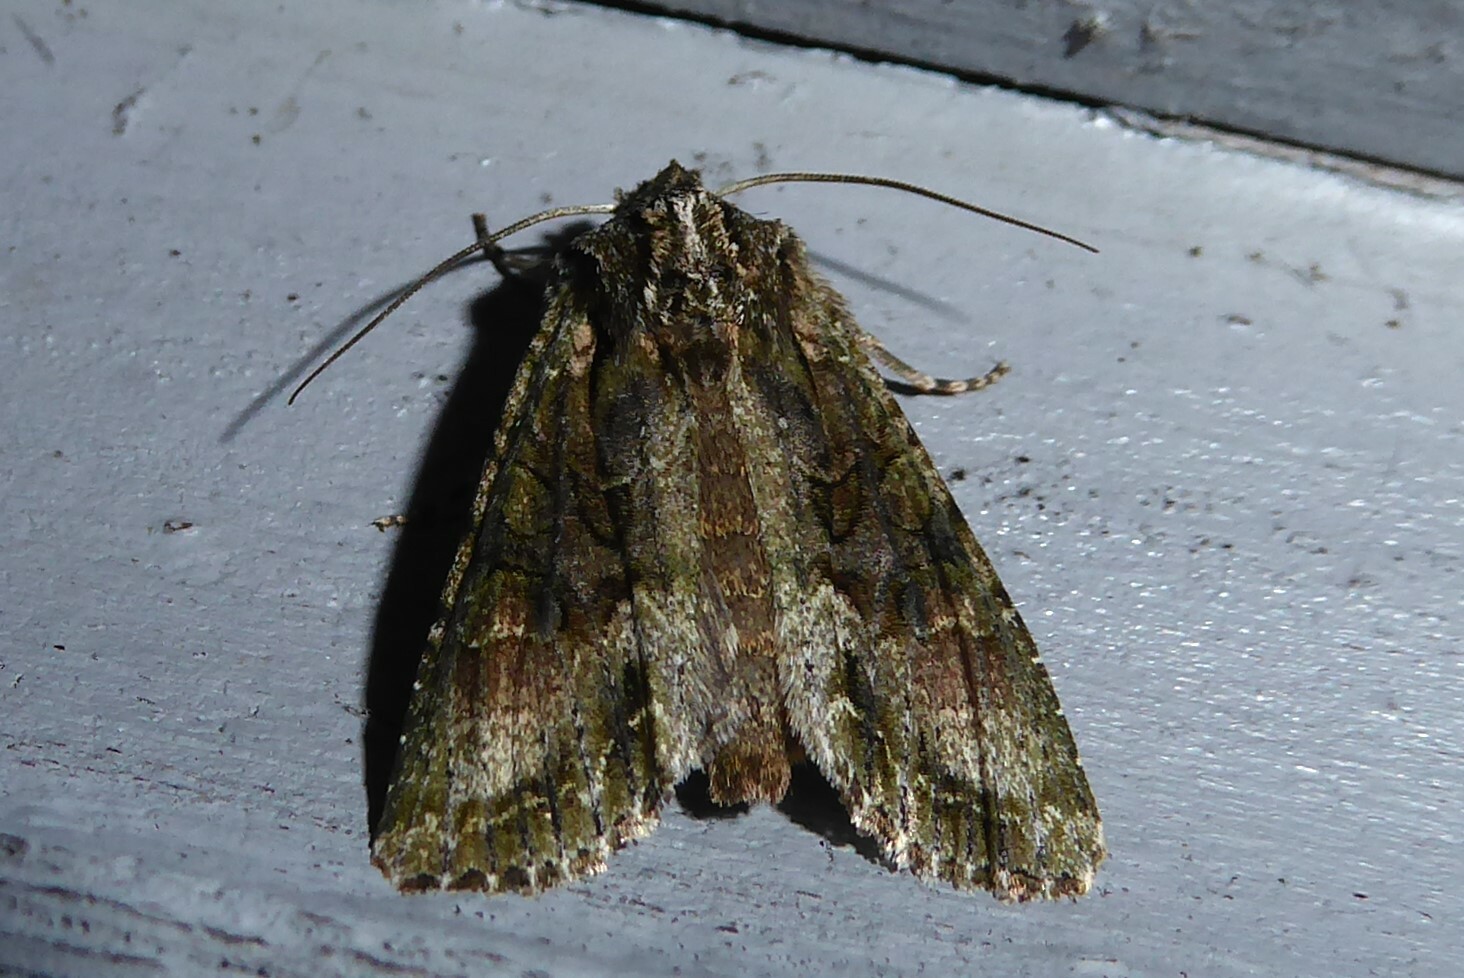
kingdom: Animalia
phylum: Arthropoda
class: Insecta
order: Lepidoptera
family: Noctuidae
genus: Ichneutica
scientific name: Ichneutica mutans
